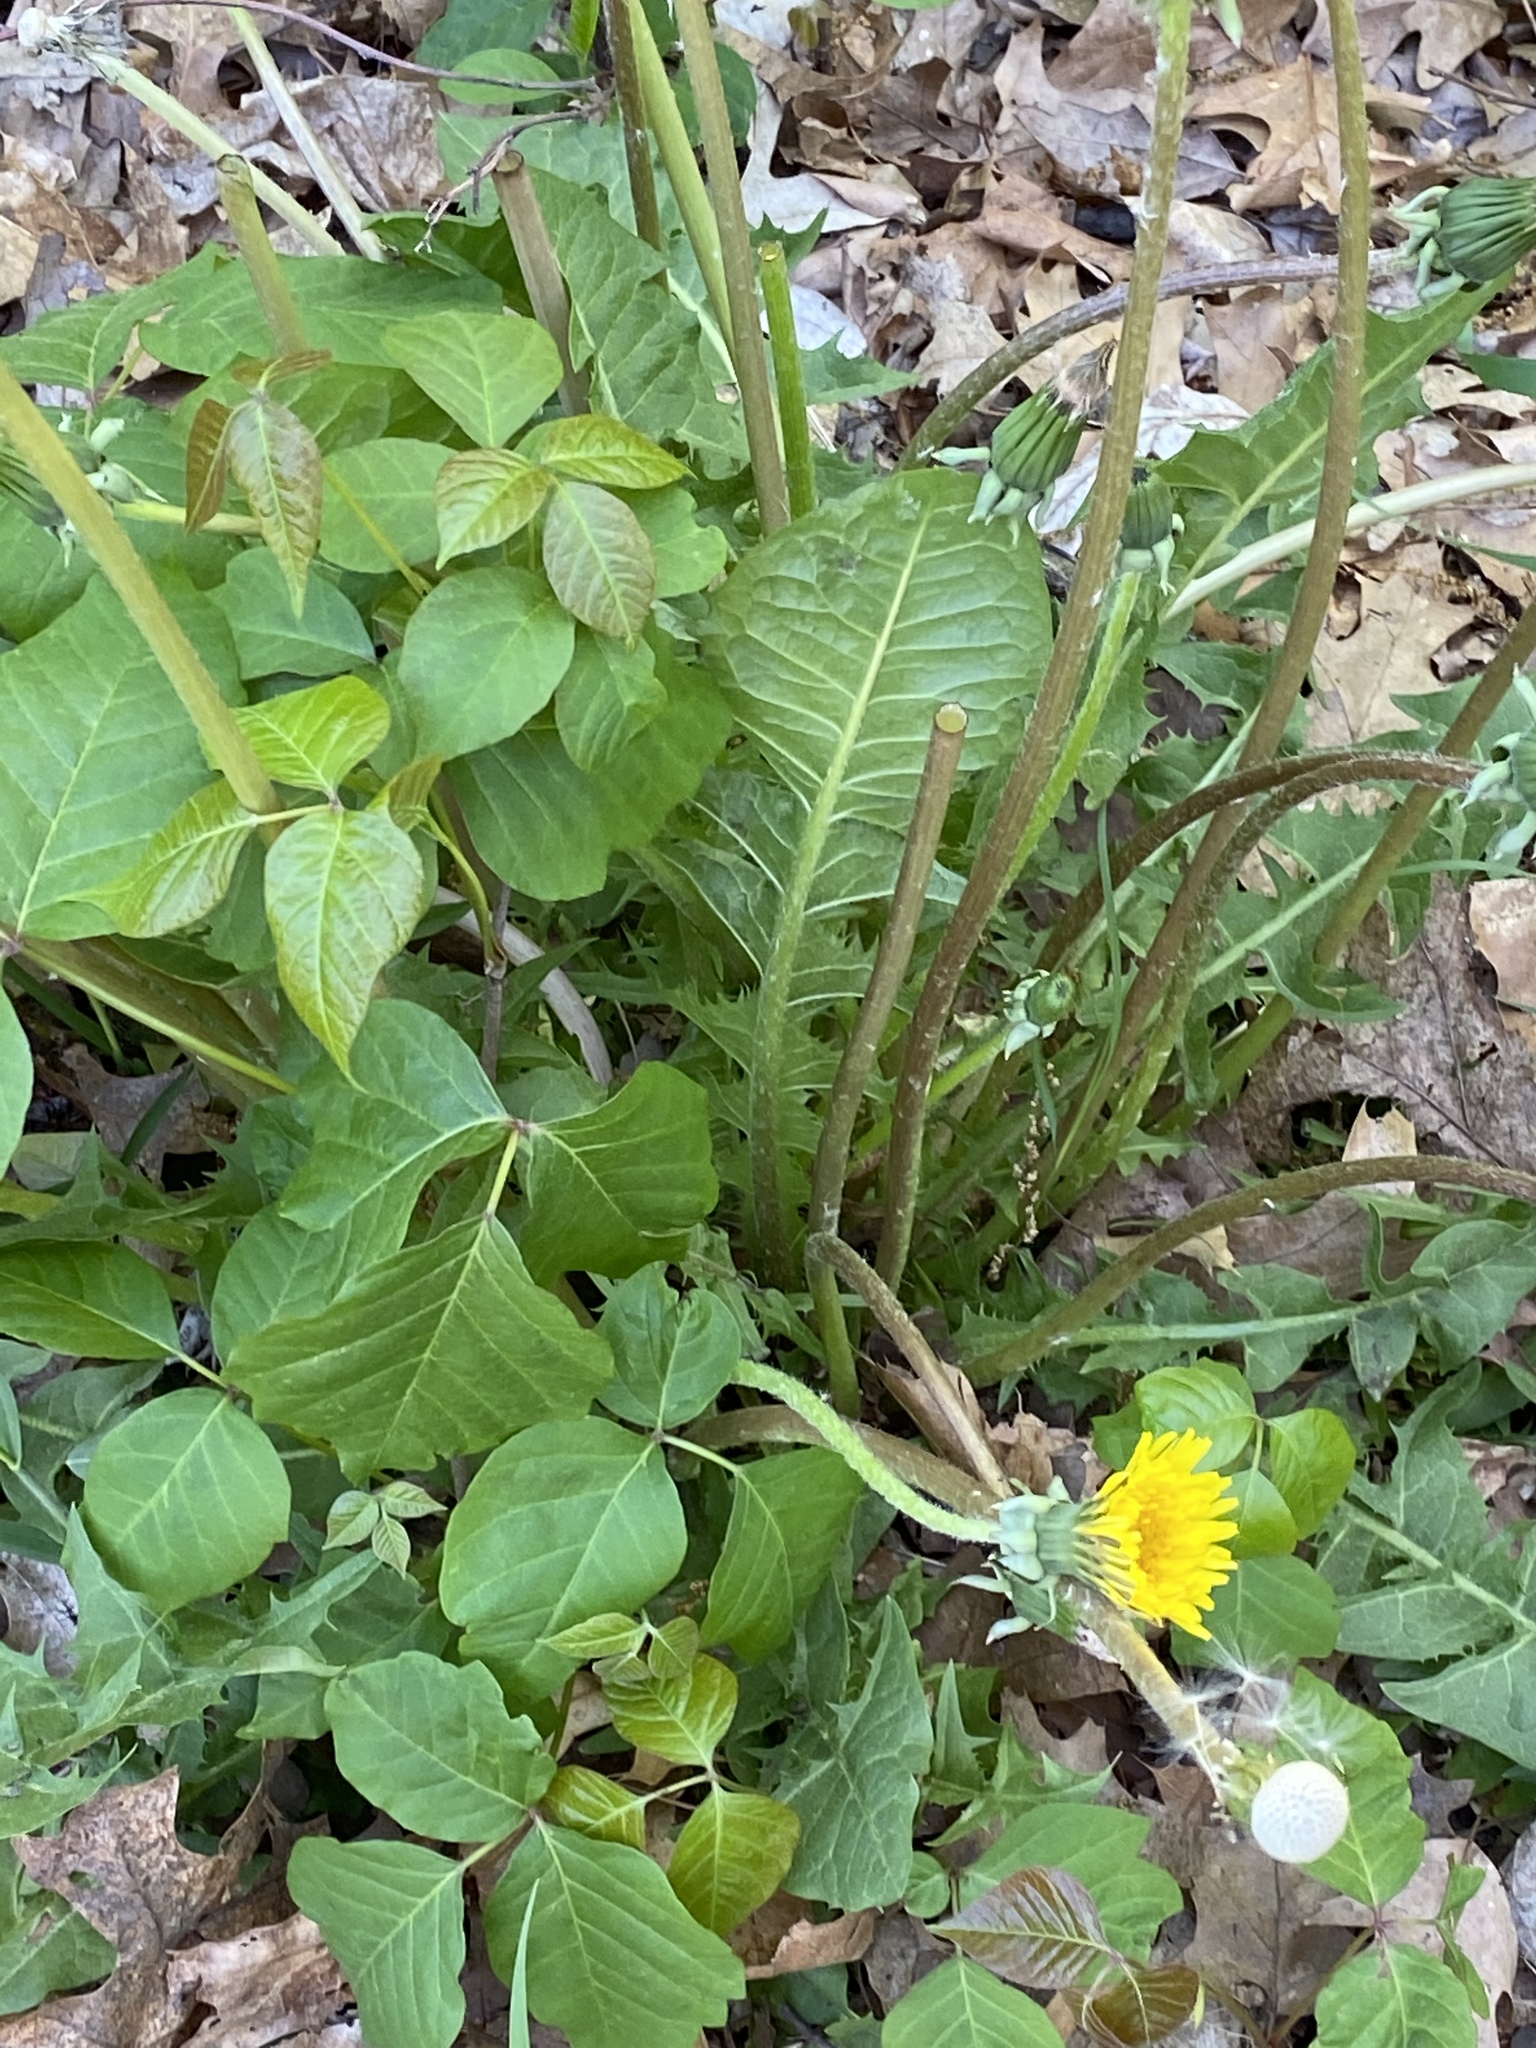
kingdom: Plantae
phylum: Tracheophyta
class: Magnoliopsida
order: Asterales
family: Asteraceae
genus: Taraxacum
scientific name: Taraxacum officinale
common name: Common dandelion
